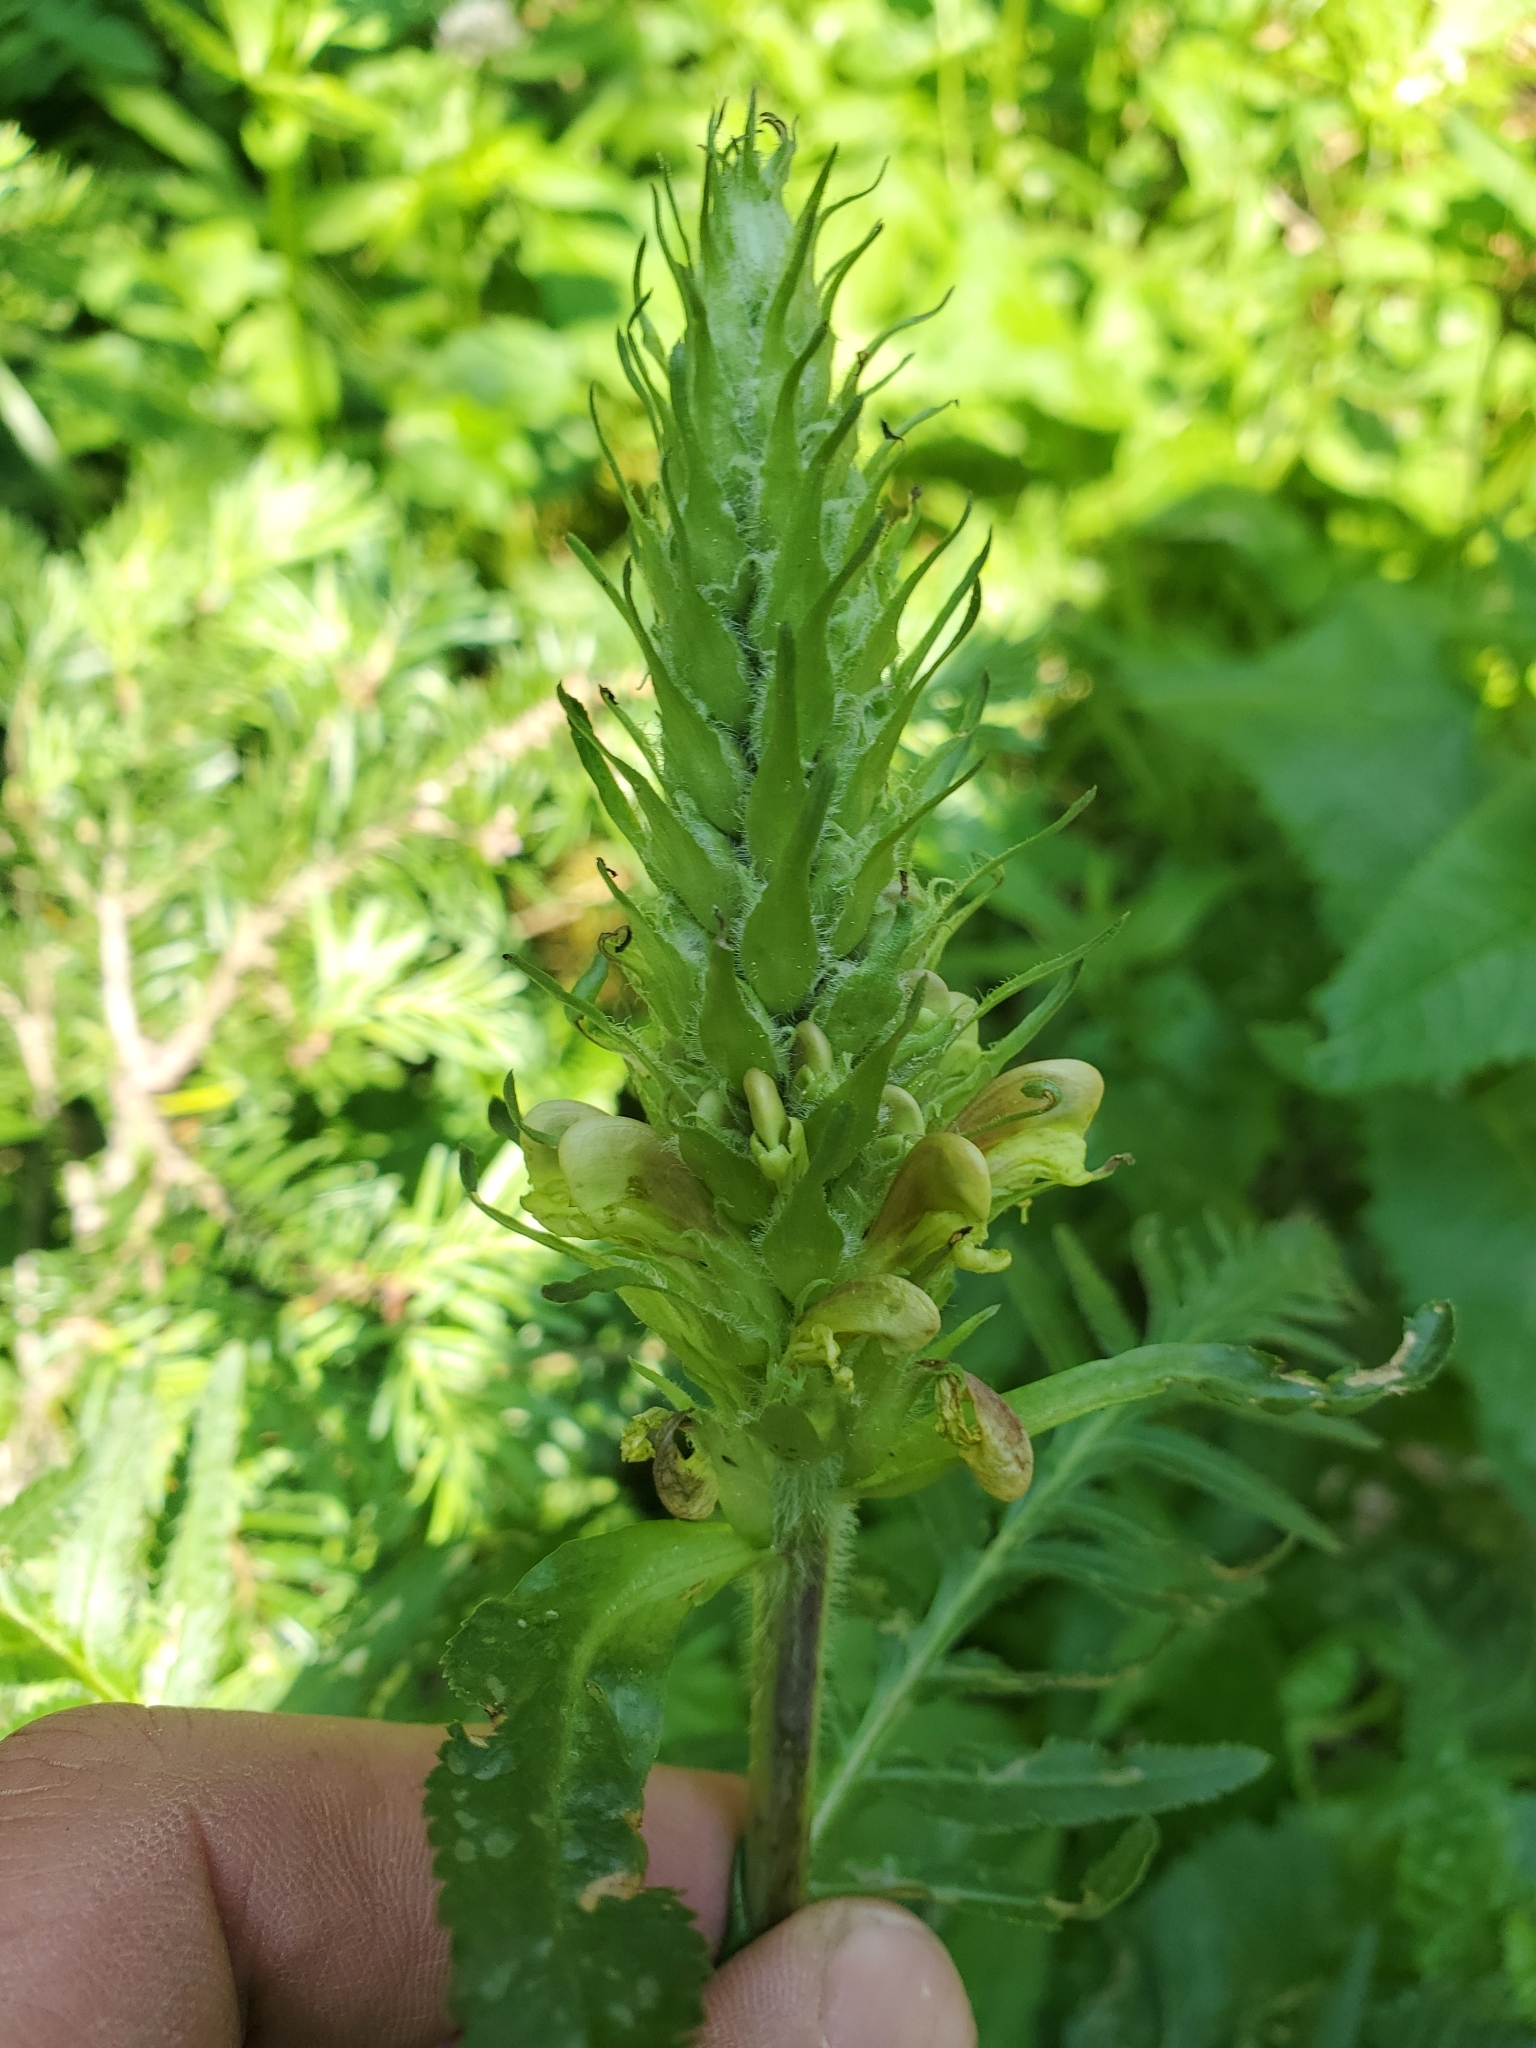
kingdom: Plantae
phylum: Tracheophyta
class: Magnoliopsida
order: Lamiales
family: Orobanchaceae
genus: Pedicularis
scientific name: Pedicularis bracteosa
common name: Bracted lousewort
